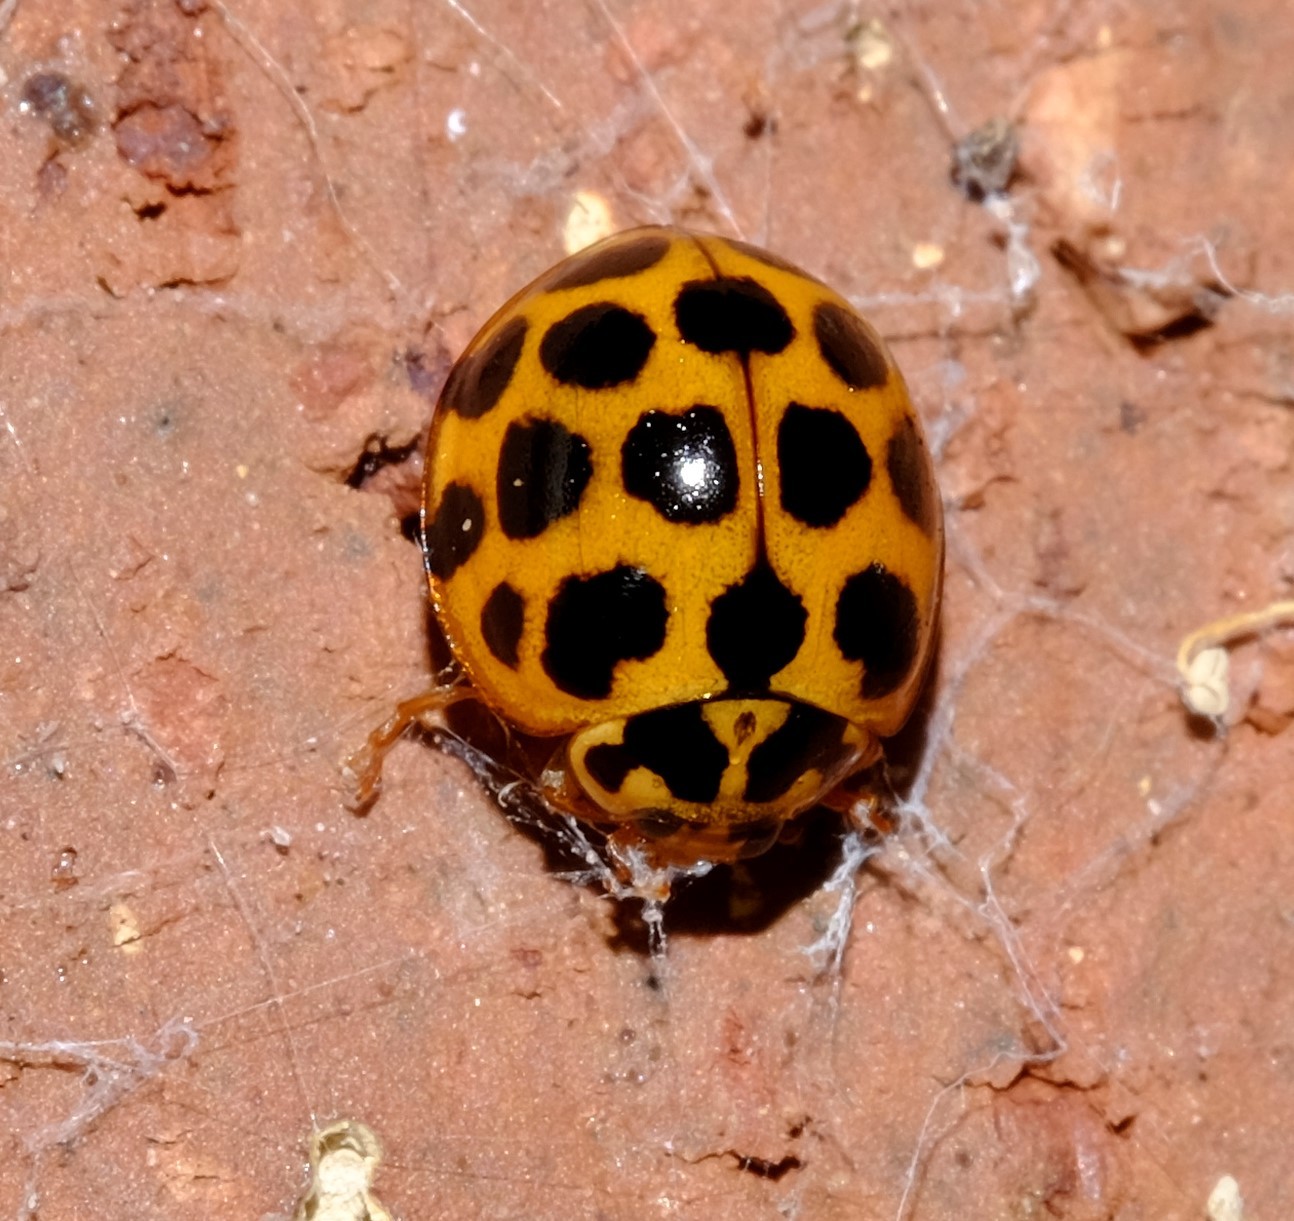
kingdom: Animalia
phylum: Arthropoda
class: Insecta
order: Coleoptera
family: Coccinellidae
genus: Harmonia
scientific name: Harmonia conformis
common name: Common spotted ladybird beetle
